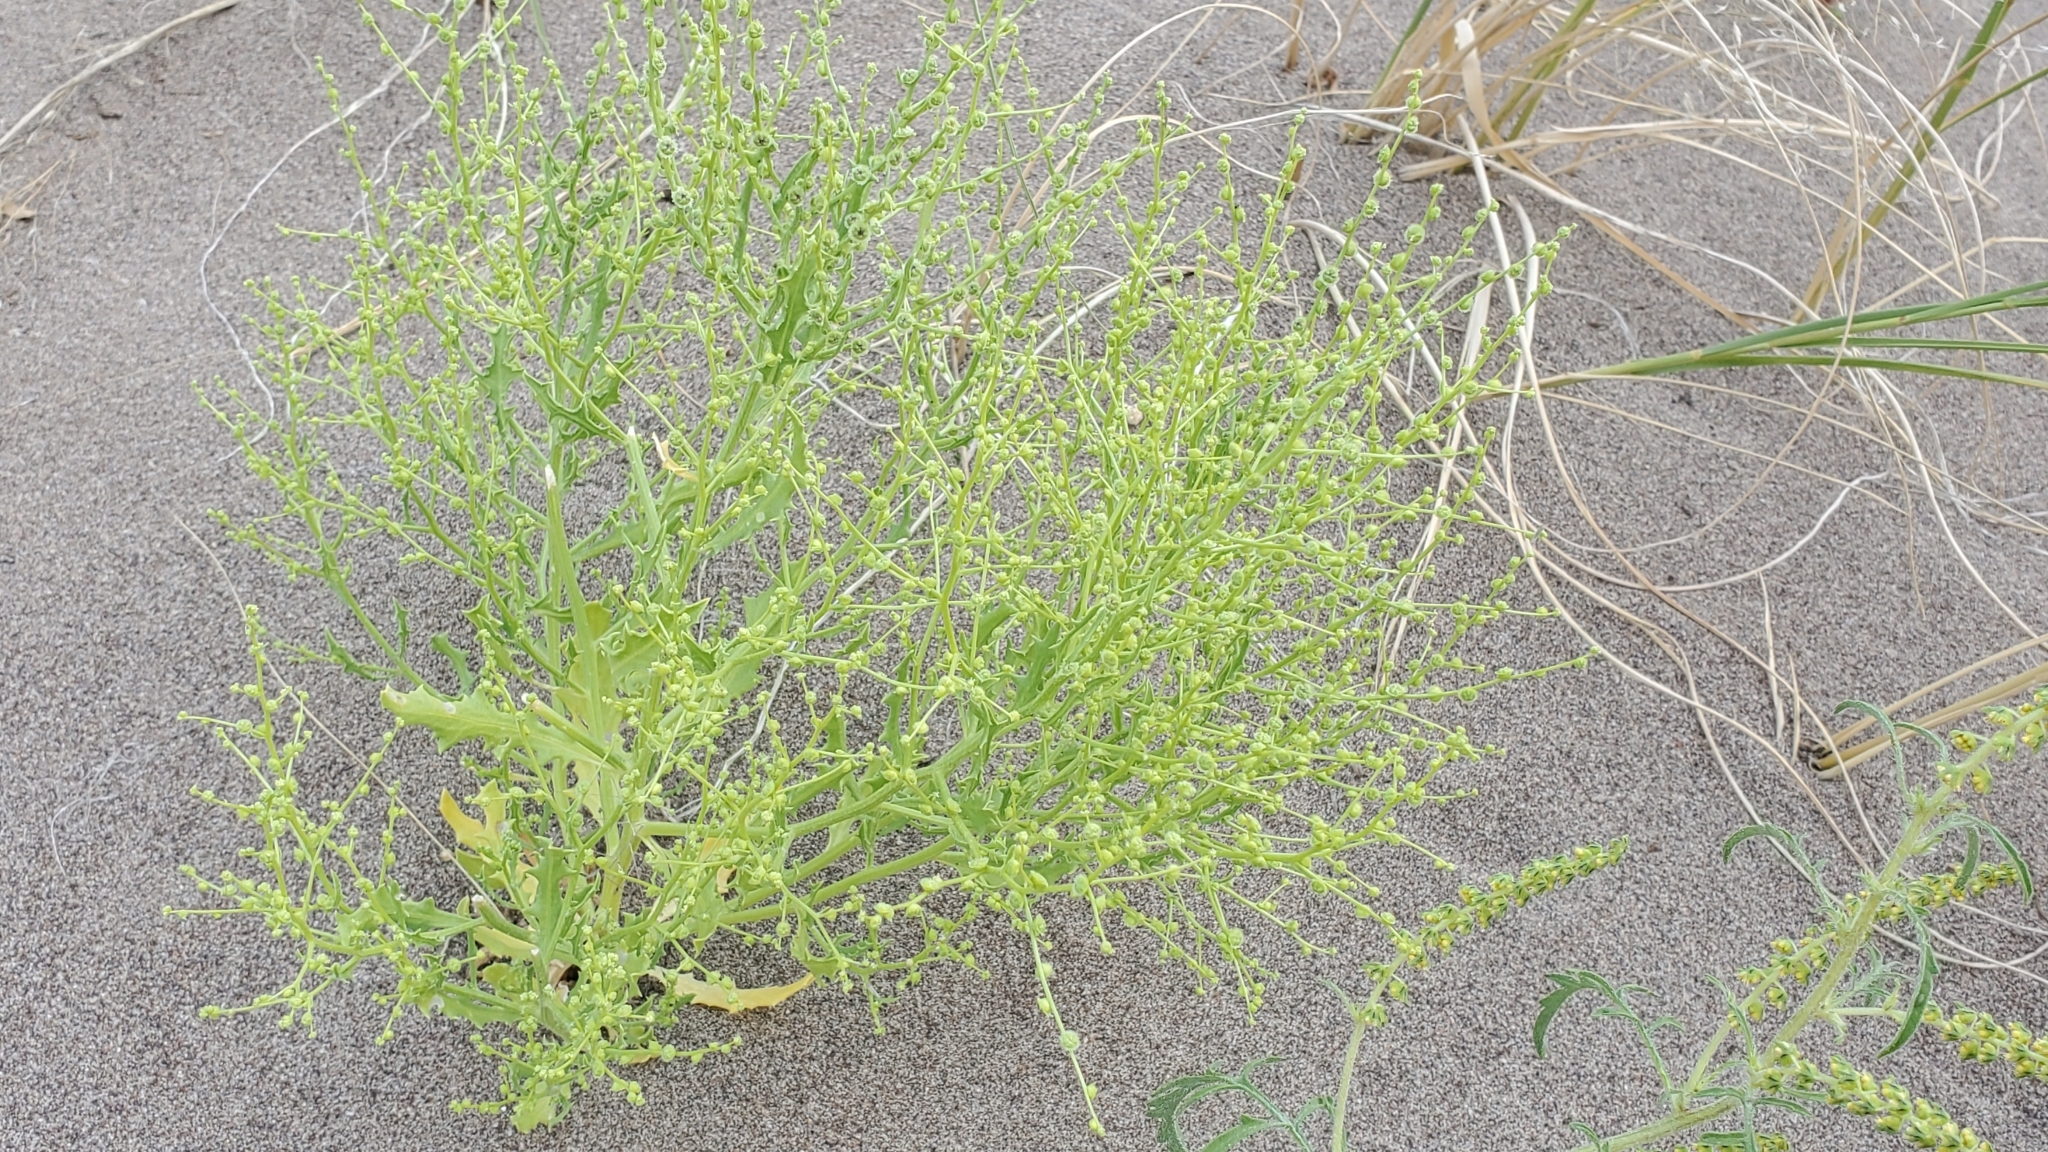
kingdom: Plantae
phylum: Tracheophyta
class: Magnoliopsida
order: Caryophyllales
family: Amaranthaceae
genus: Dysphania
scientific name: Dysphania atriplicifolia
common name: Plains tumbleweed
